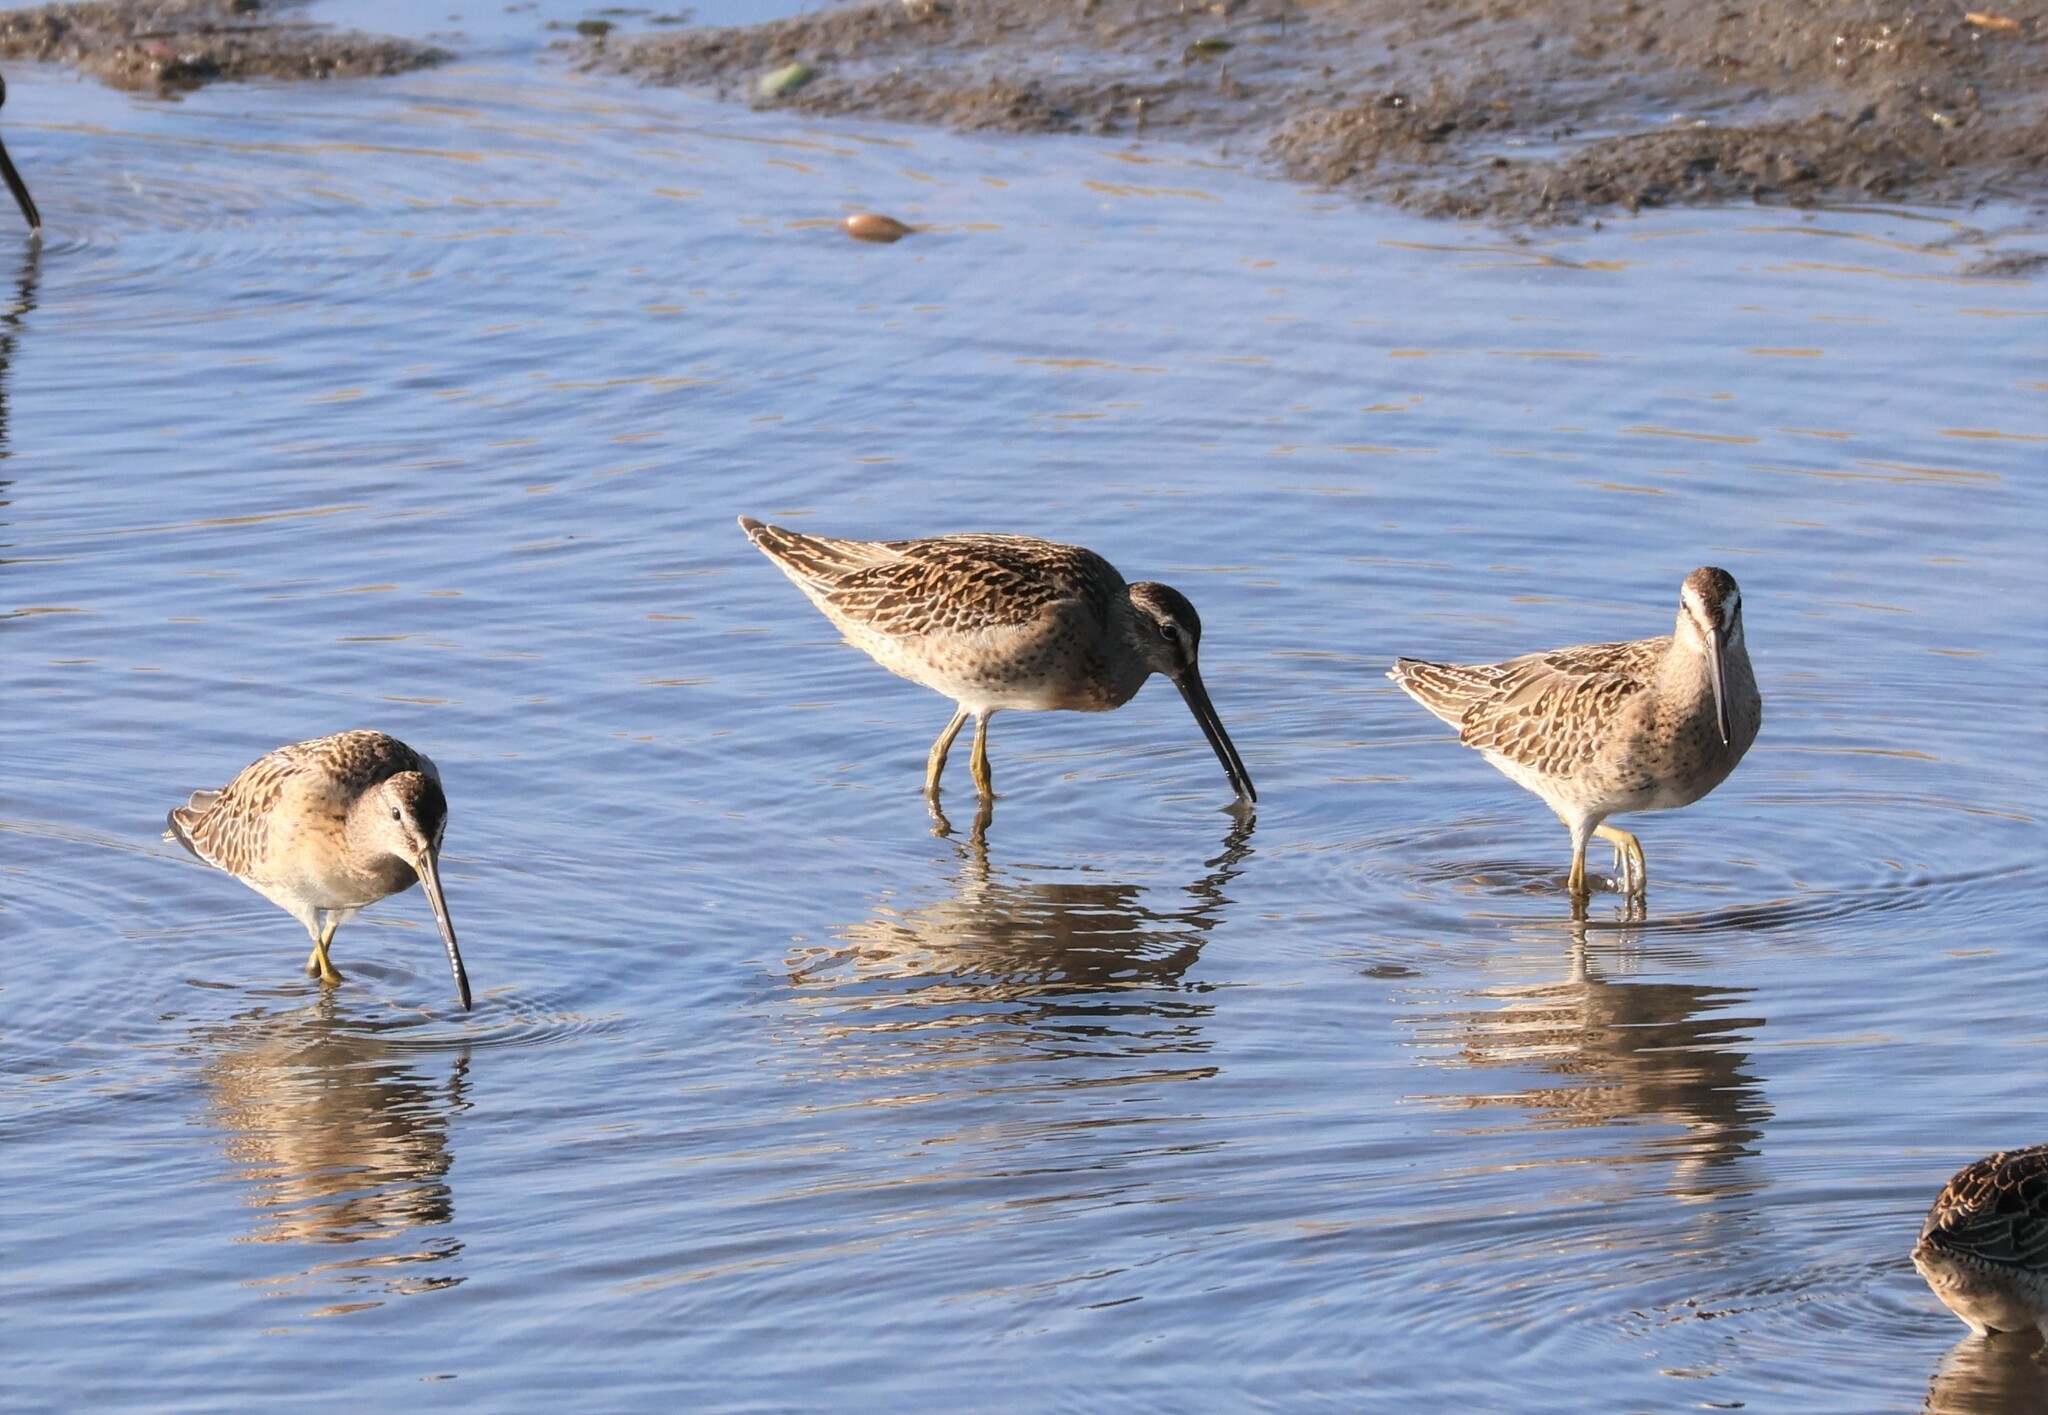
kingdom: Animalia
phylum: Chordata
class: Aves
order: Charadriiformes
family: Scolopacidae
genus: Limnodromus
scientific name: Limnodromus griseus
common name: Short-billed dowitcher
